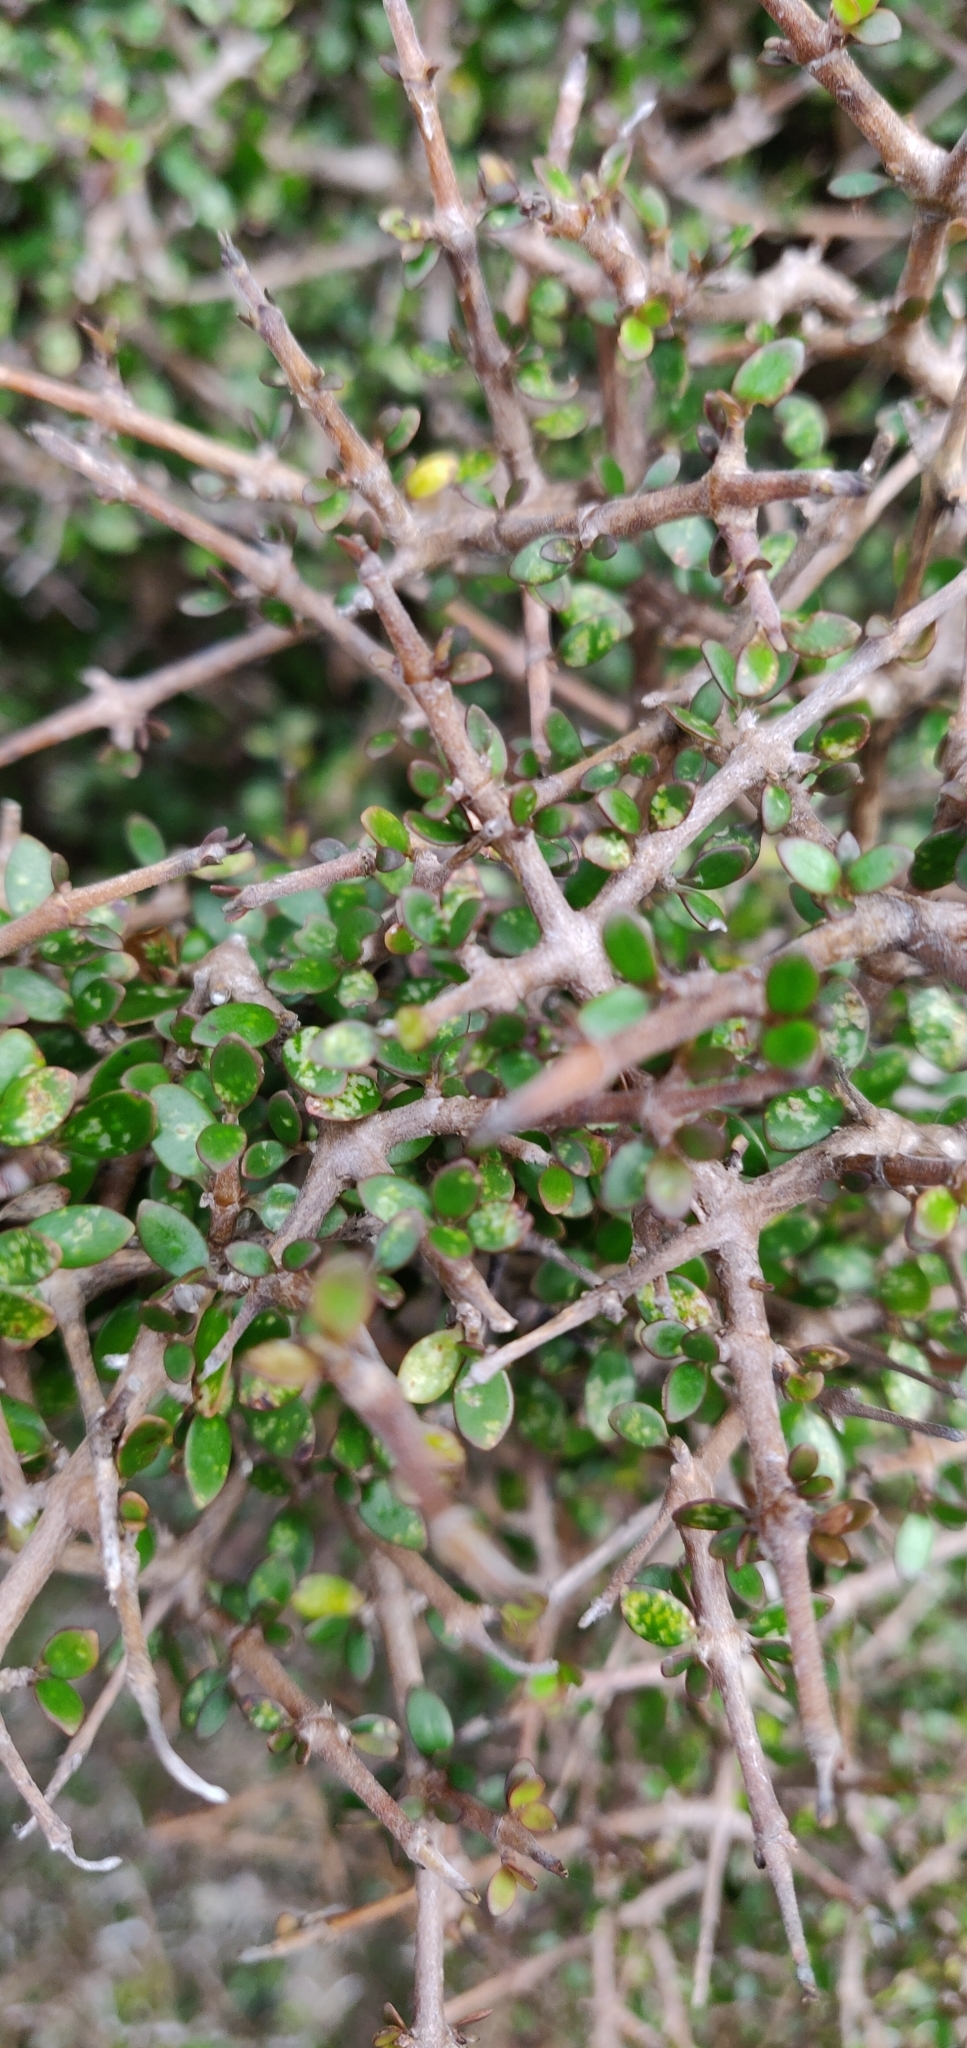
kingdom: Plantae
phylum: Tracheophyta
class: Magnoliopsida
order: Gentianales
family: Rubiaceae
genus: Coprosma
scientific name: Coprosma propinqua
